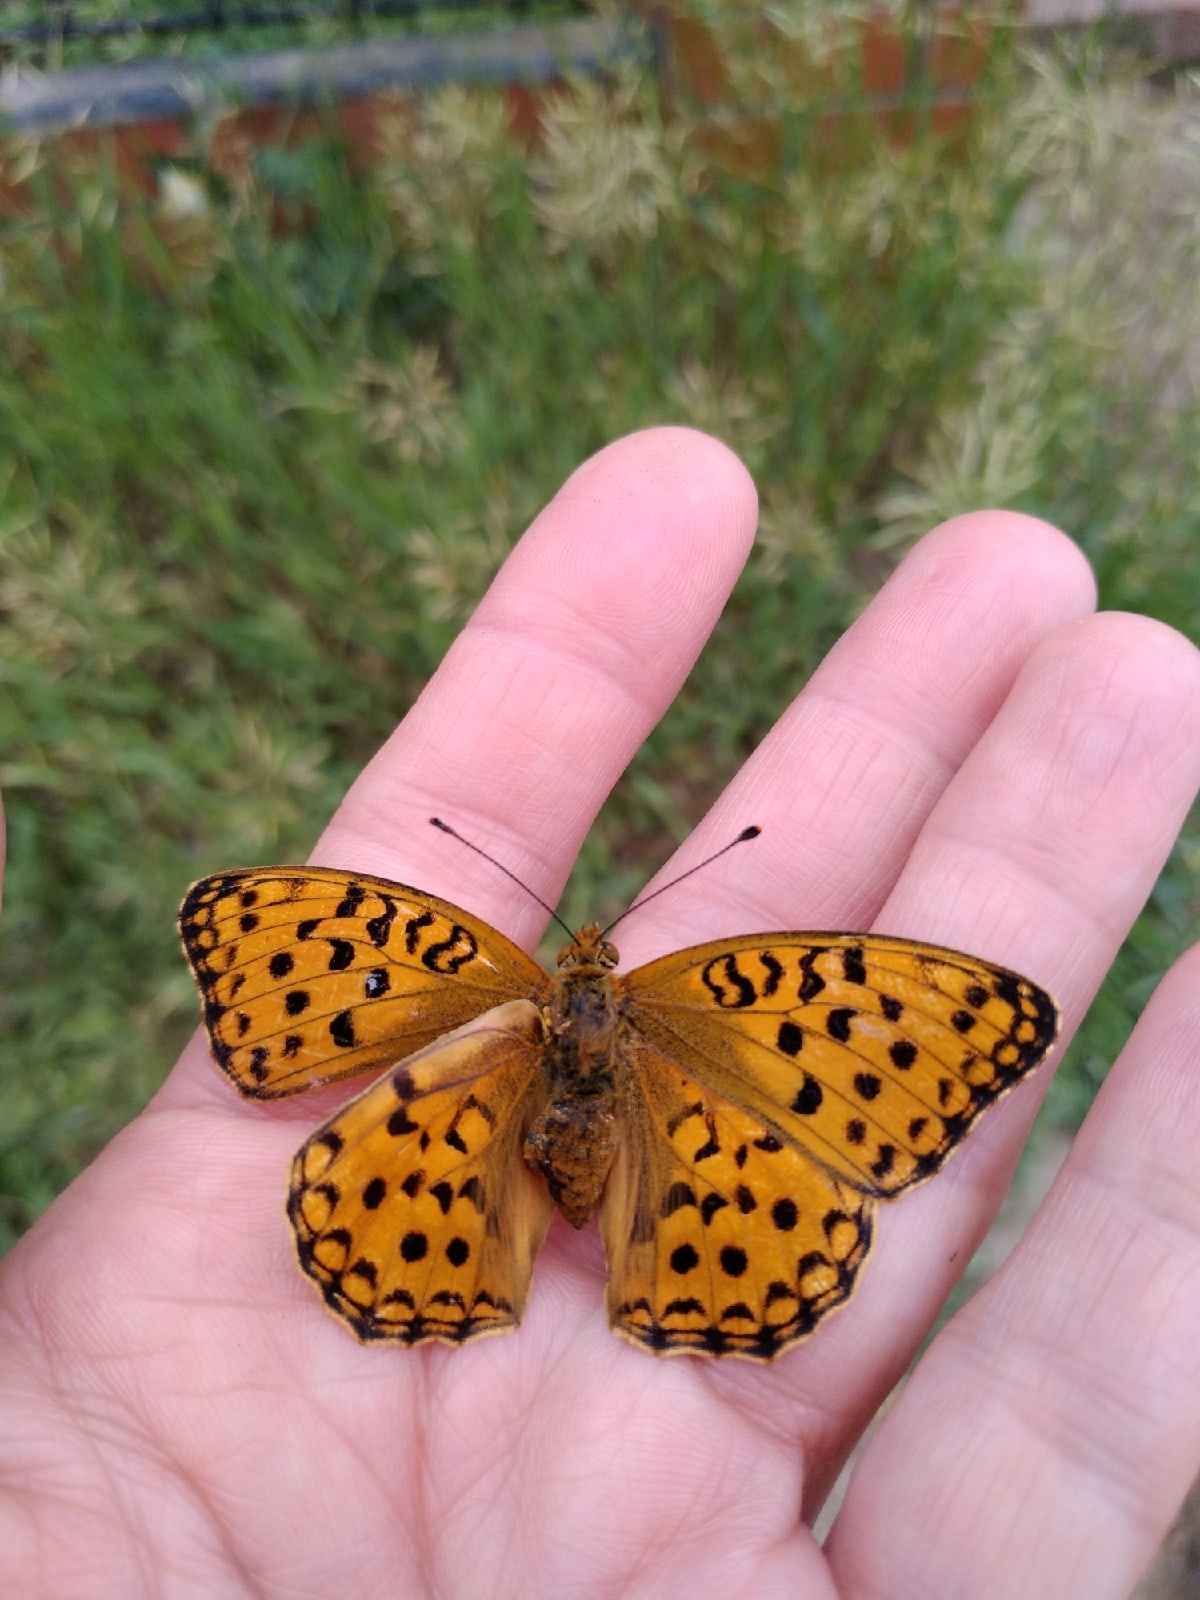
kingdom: Animalia
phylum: Arthropoda
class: Insecta
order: Lepidoptera
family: Nymphalidae
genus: Fabriciana
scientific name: Fabriciana adippe
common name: High brown fritillary
